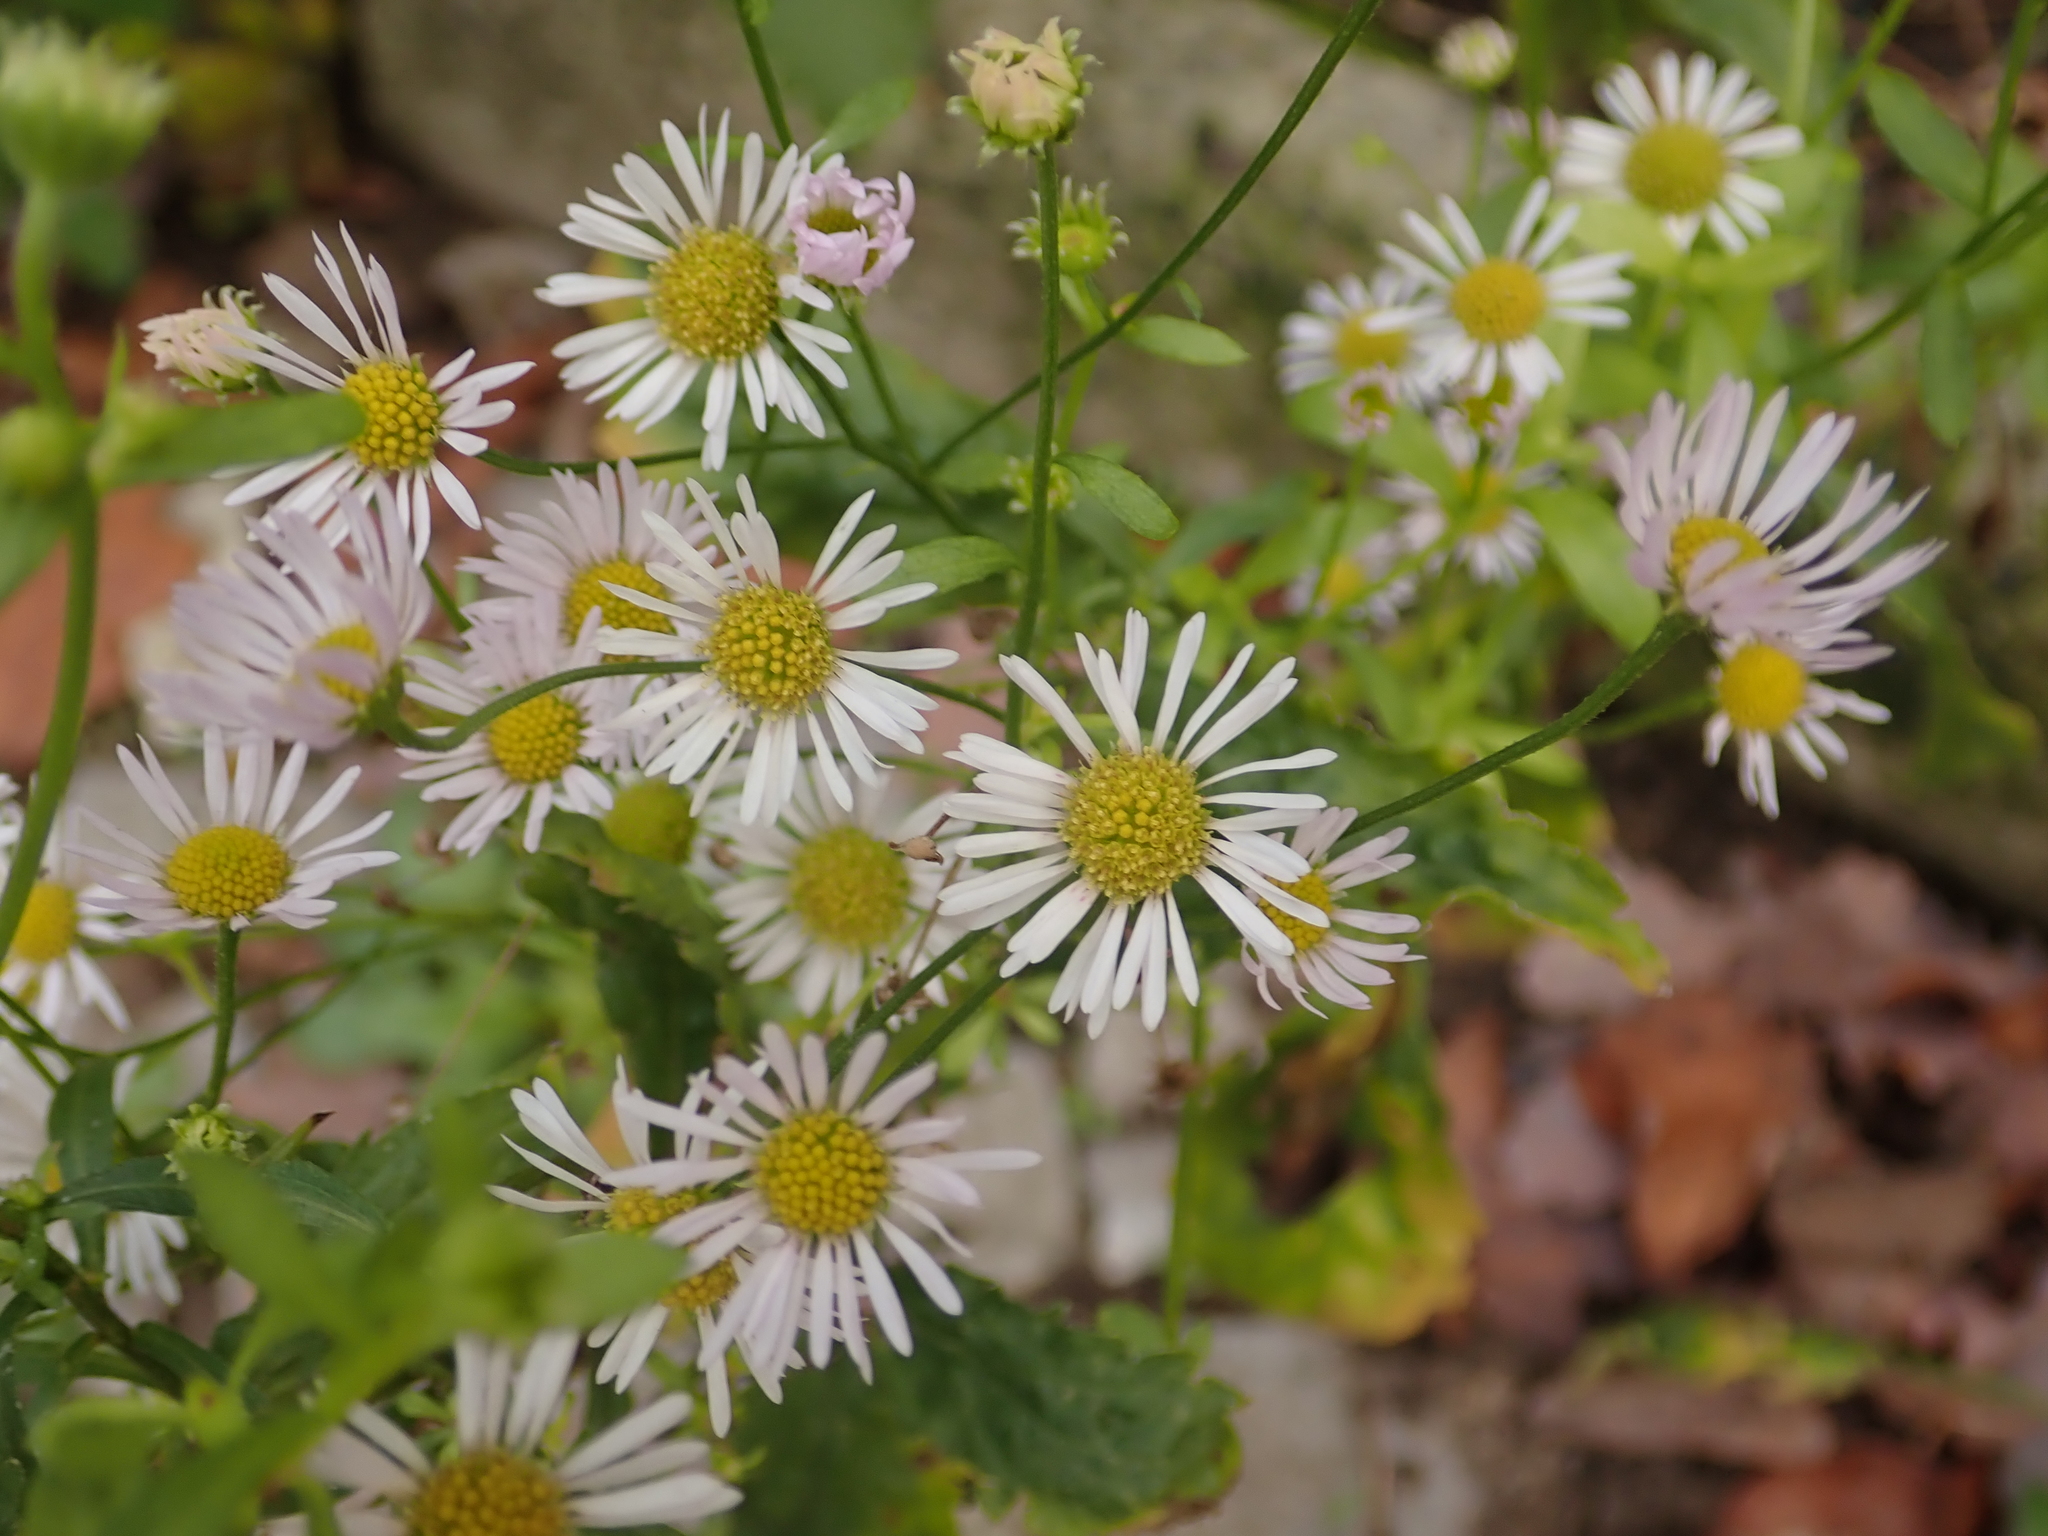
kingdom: Plantae
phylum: Tracheophyta
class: Magnoliopsida
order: Asterales
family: Asteraceae
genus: Erigeron
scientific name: Erigeron annuus
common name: Tall fleabane
